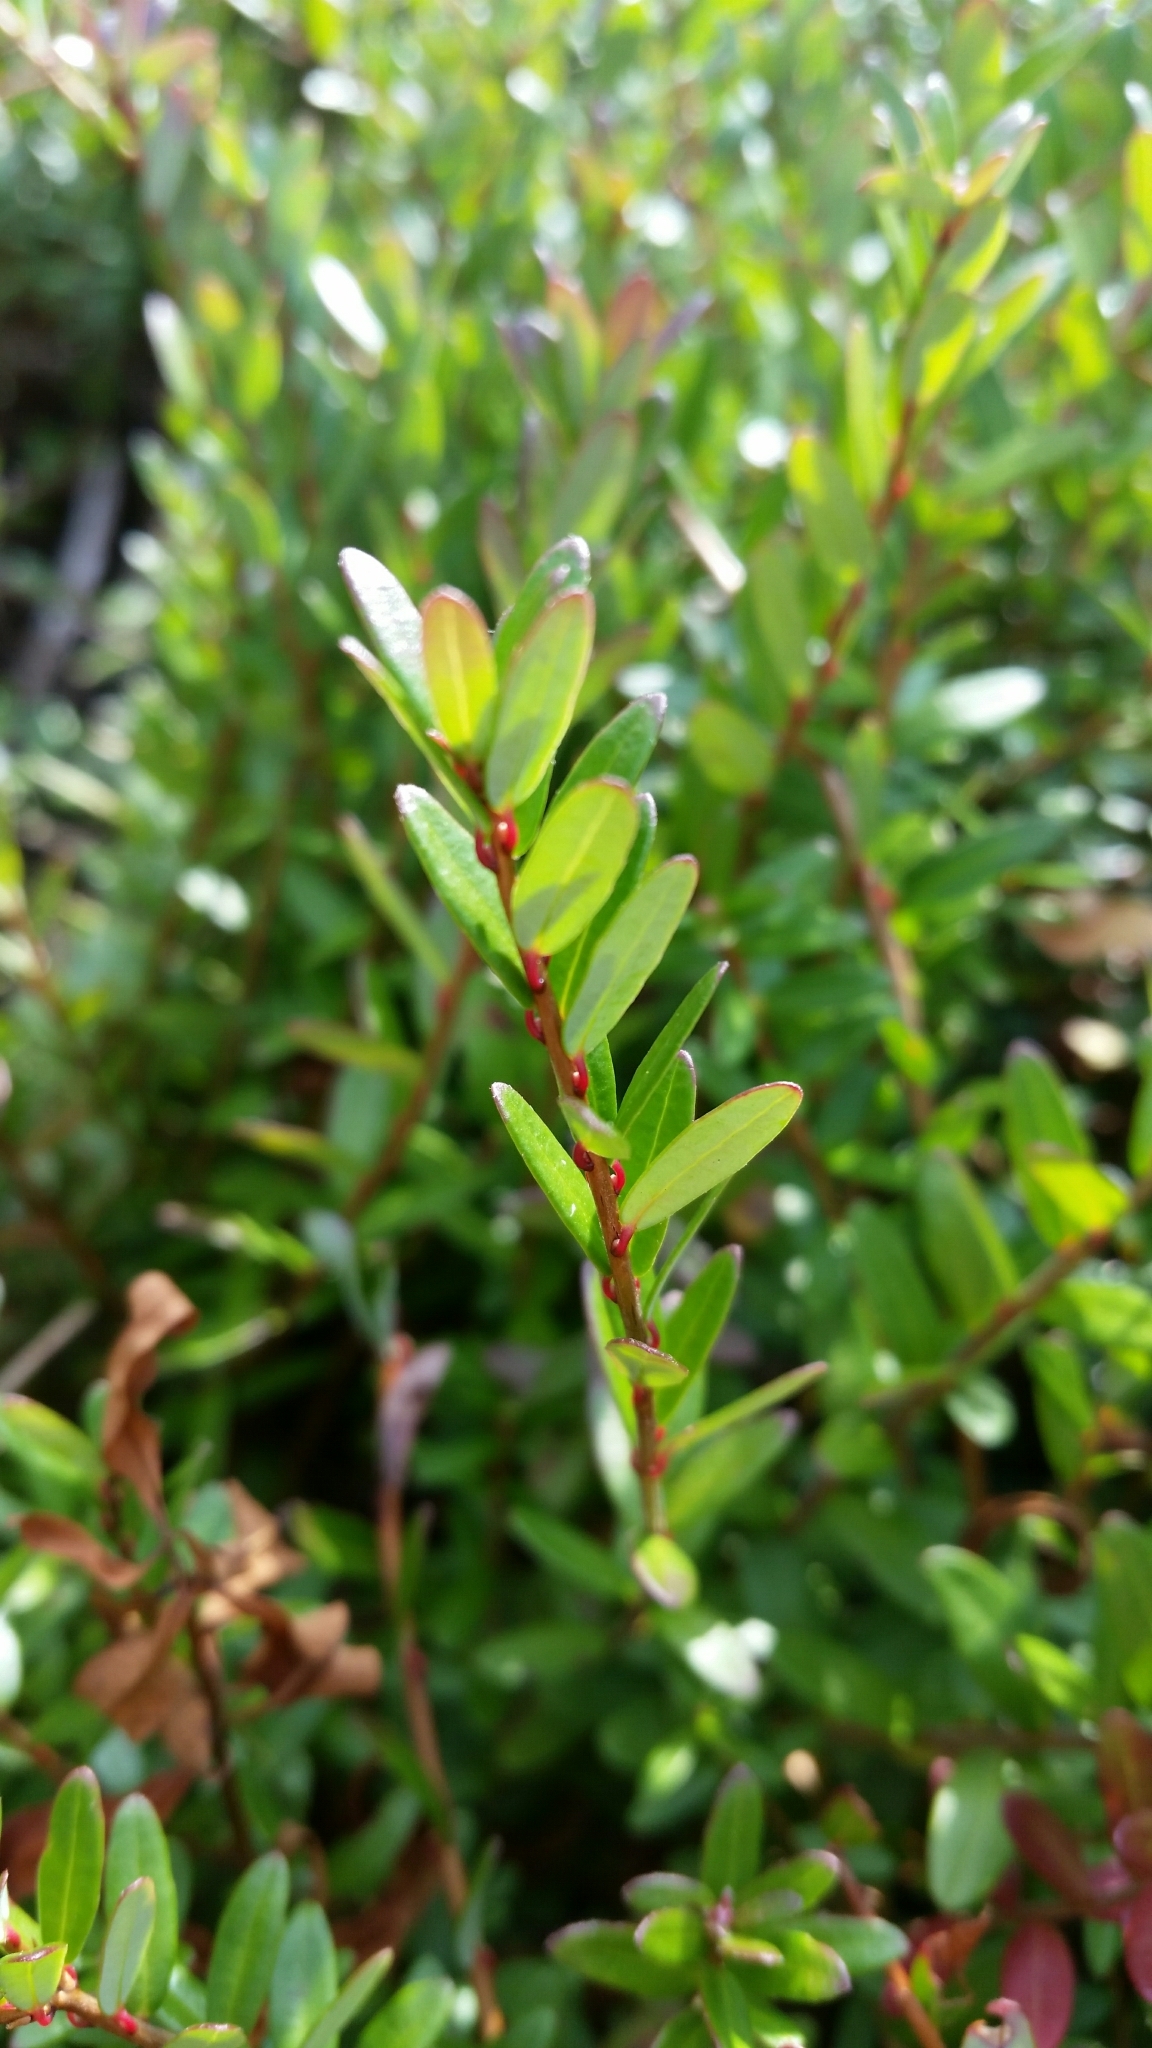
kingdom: Plantae
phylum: Tracheophyta
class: Magnoliopsida
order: Ericales
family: Ericaceae
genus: Vaccinium
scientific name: Vaccinium macrocarpon
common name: American cranberry
